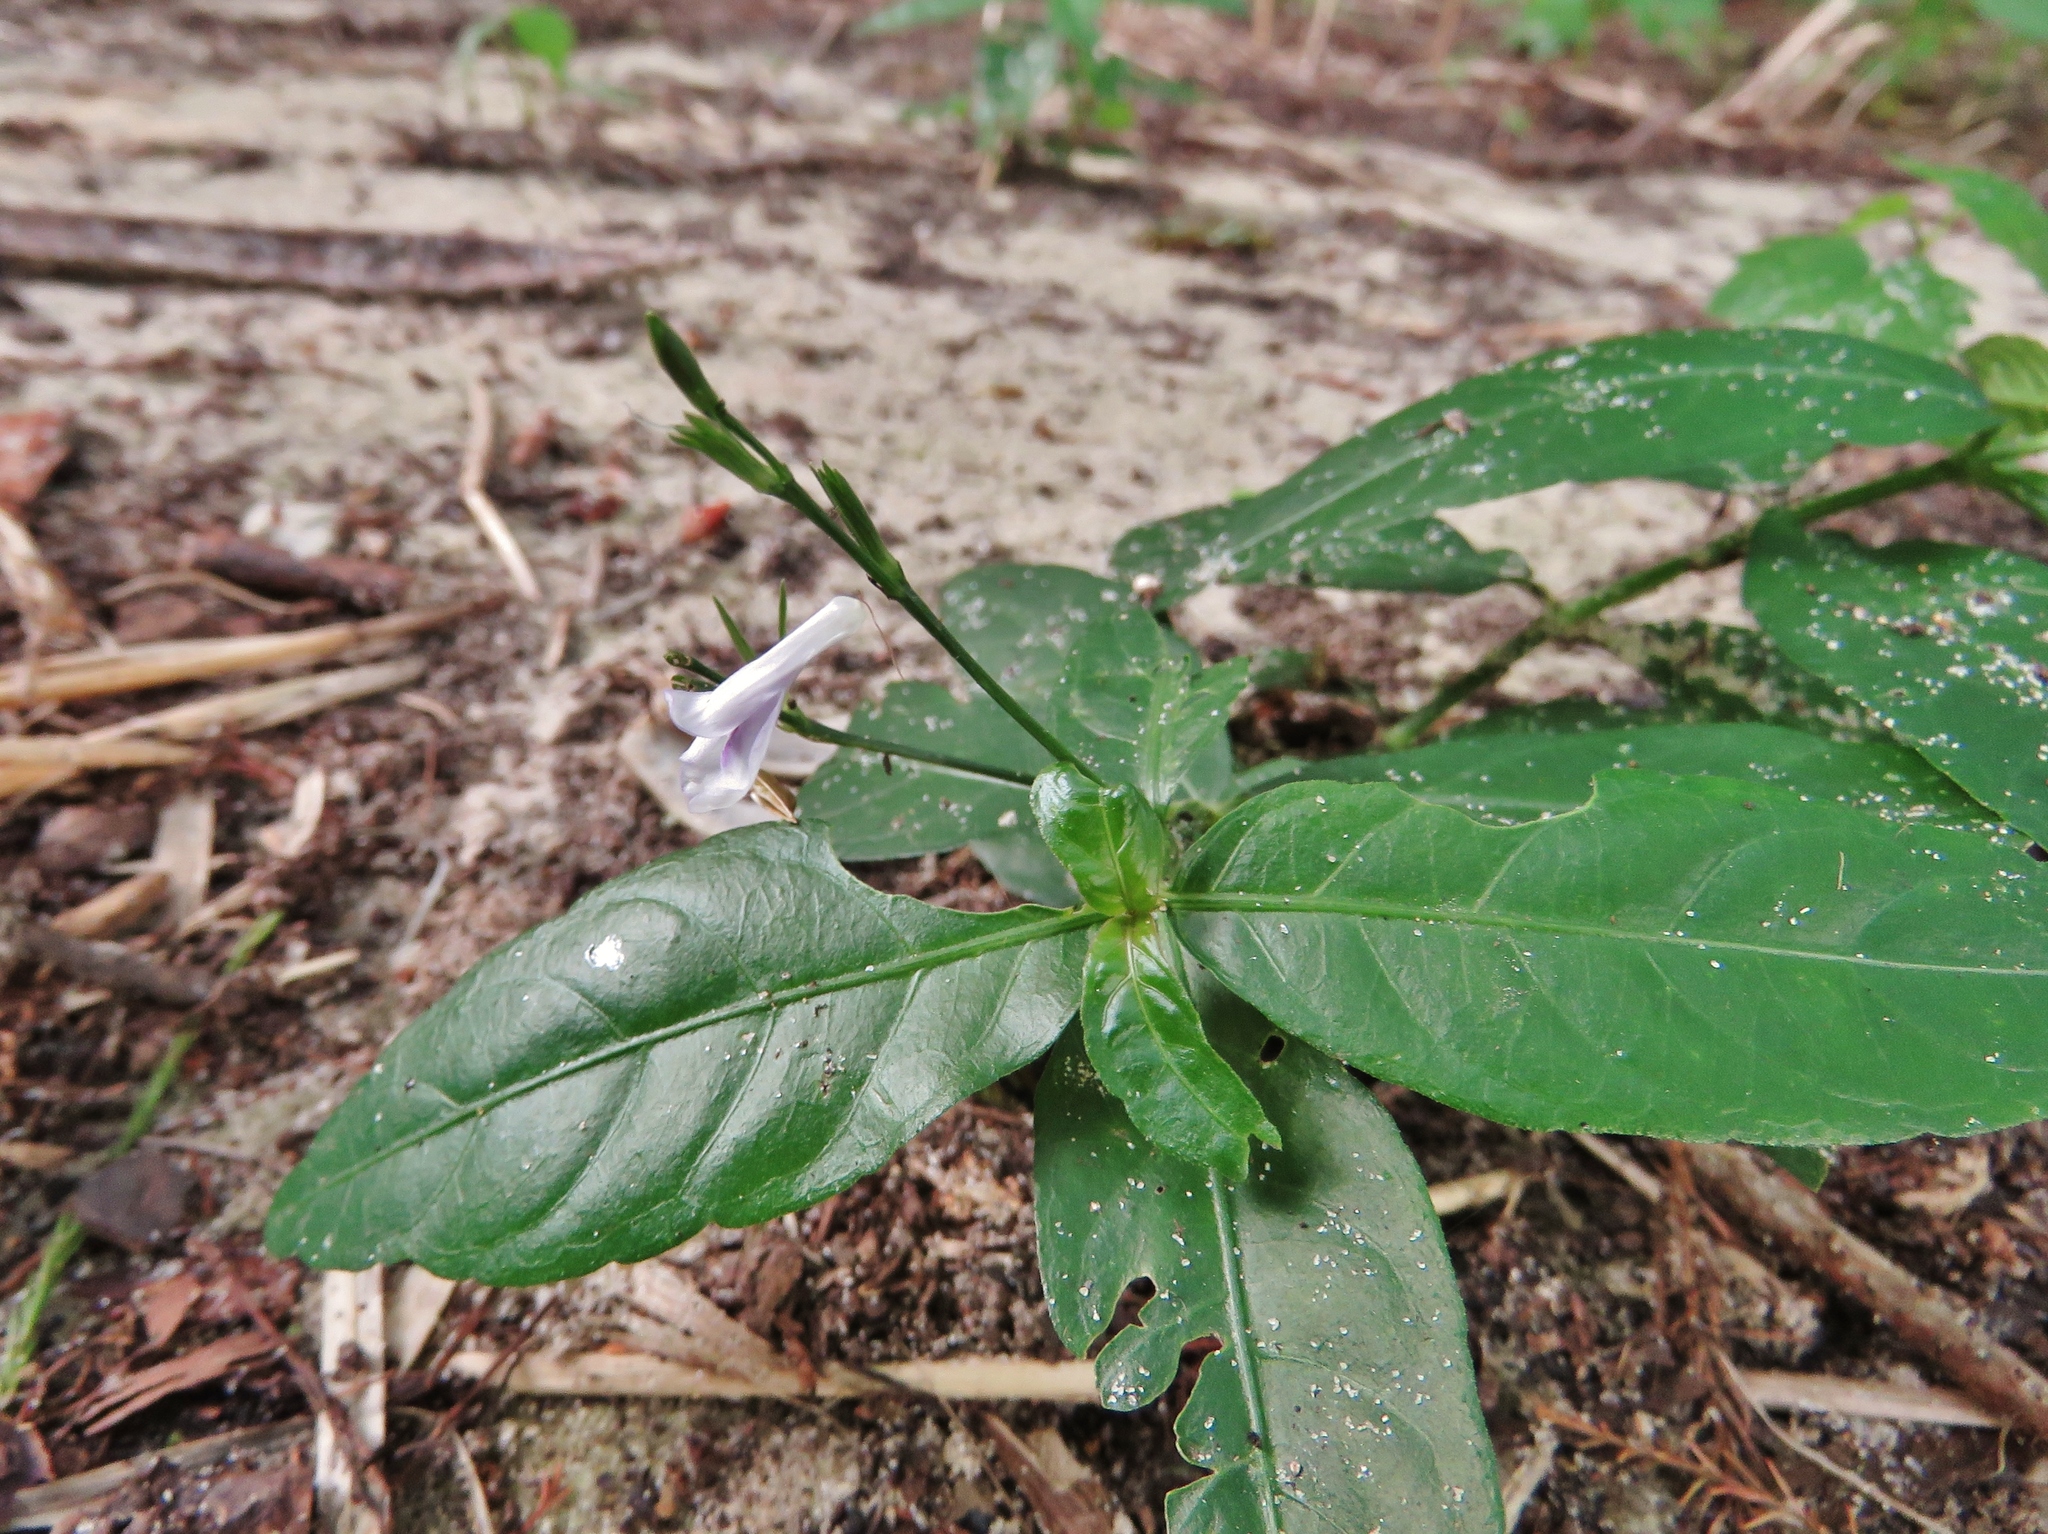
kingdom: Plantae
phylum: Tracheophyta
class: Magnoliopsida
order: Lamiales
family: Acanthaceae
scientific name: Acanthaceae
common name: Acanthaceae
